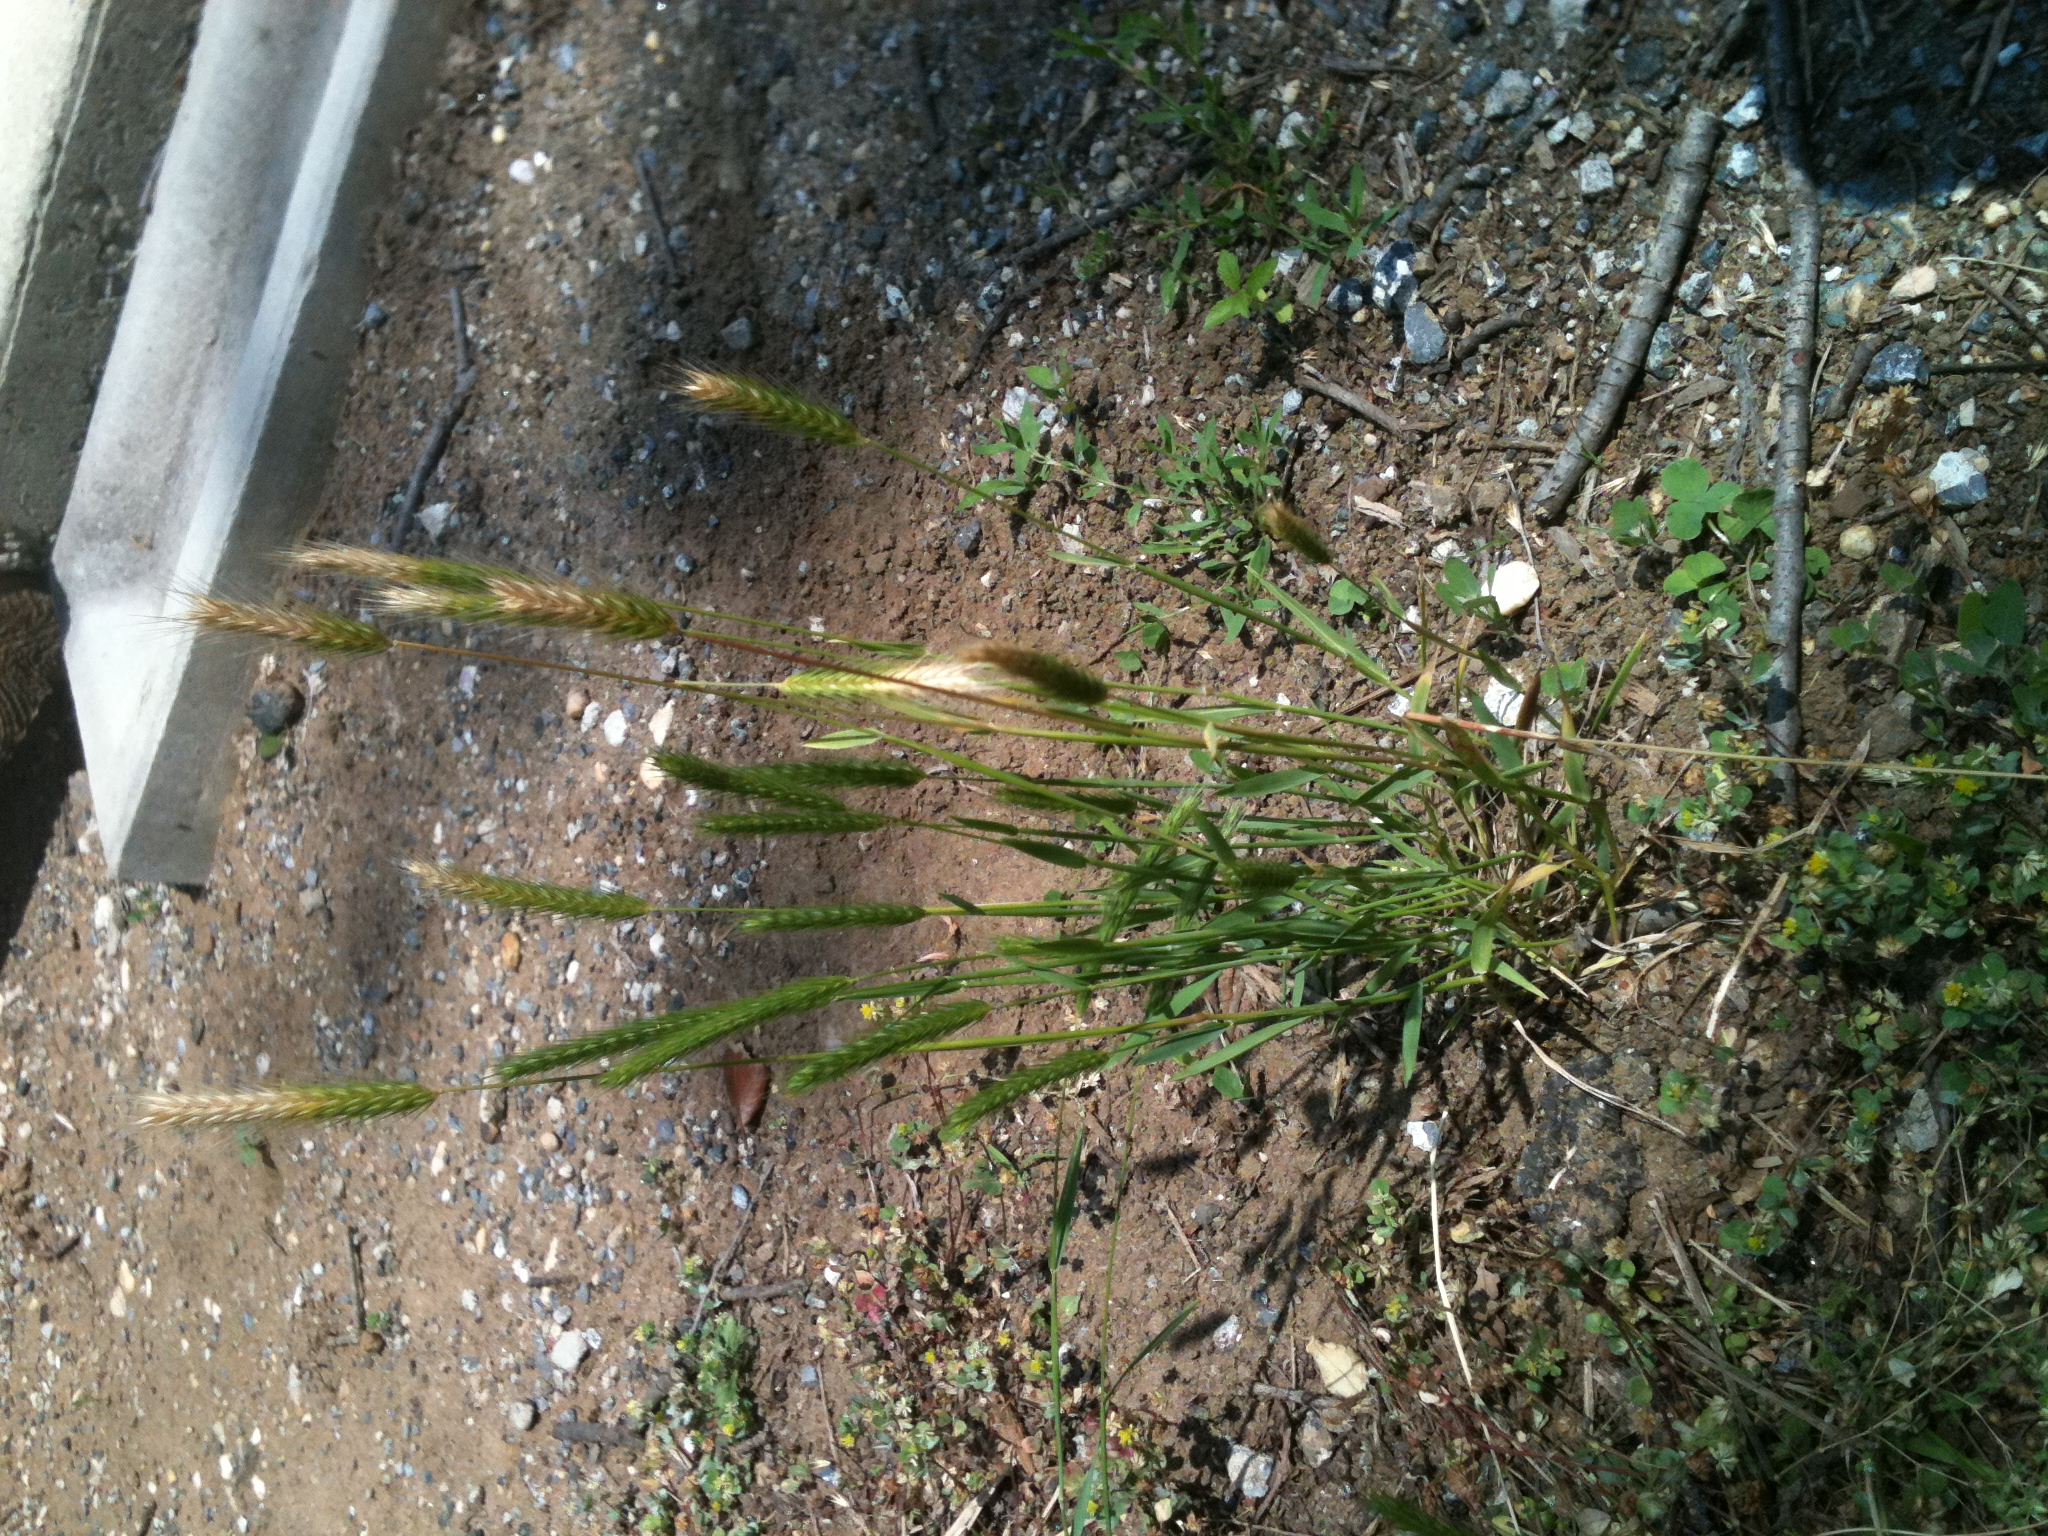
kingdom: Plantae
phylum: Tracheophyta
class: Liliopsida
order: Poales
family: Poaceae
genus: Hordeum
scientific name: Hordeum pusillum
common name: Little barley
